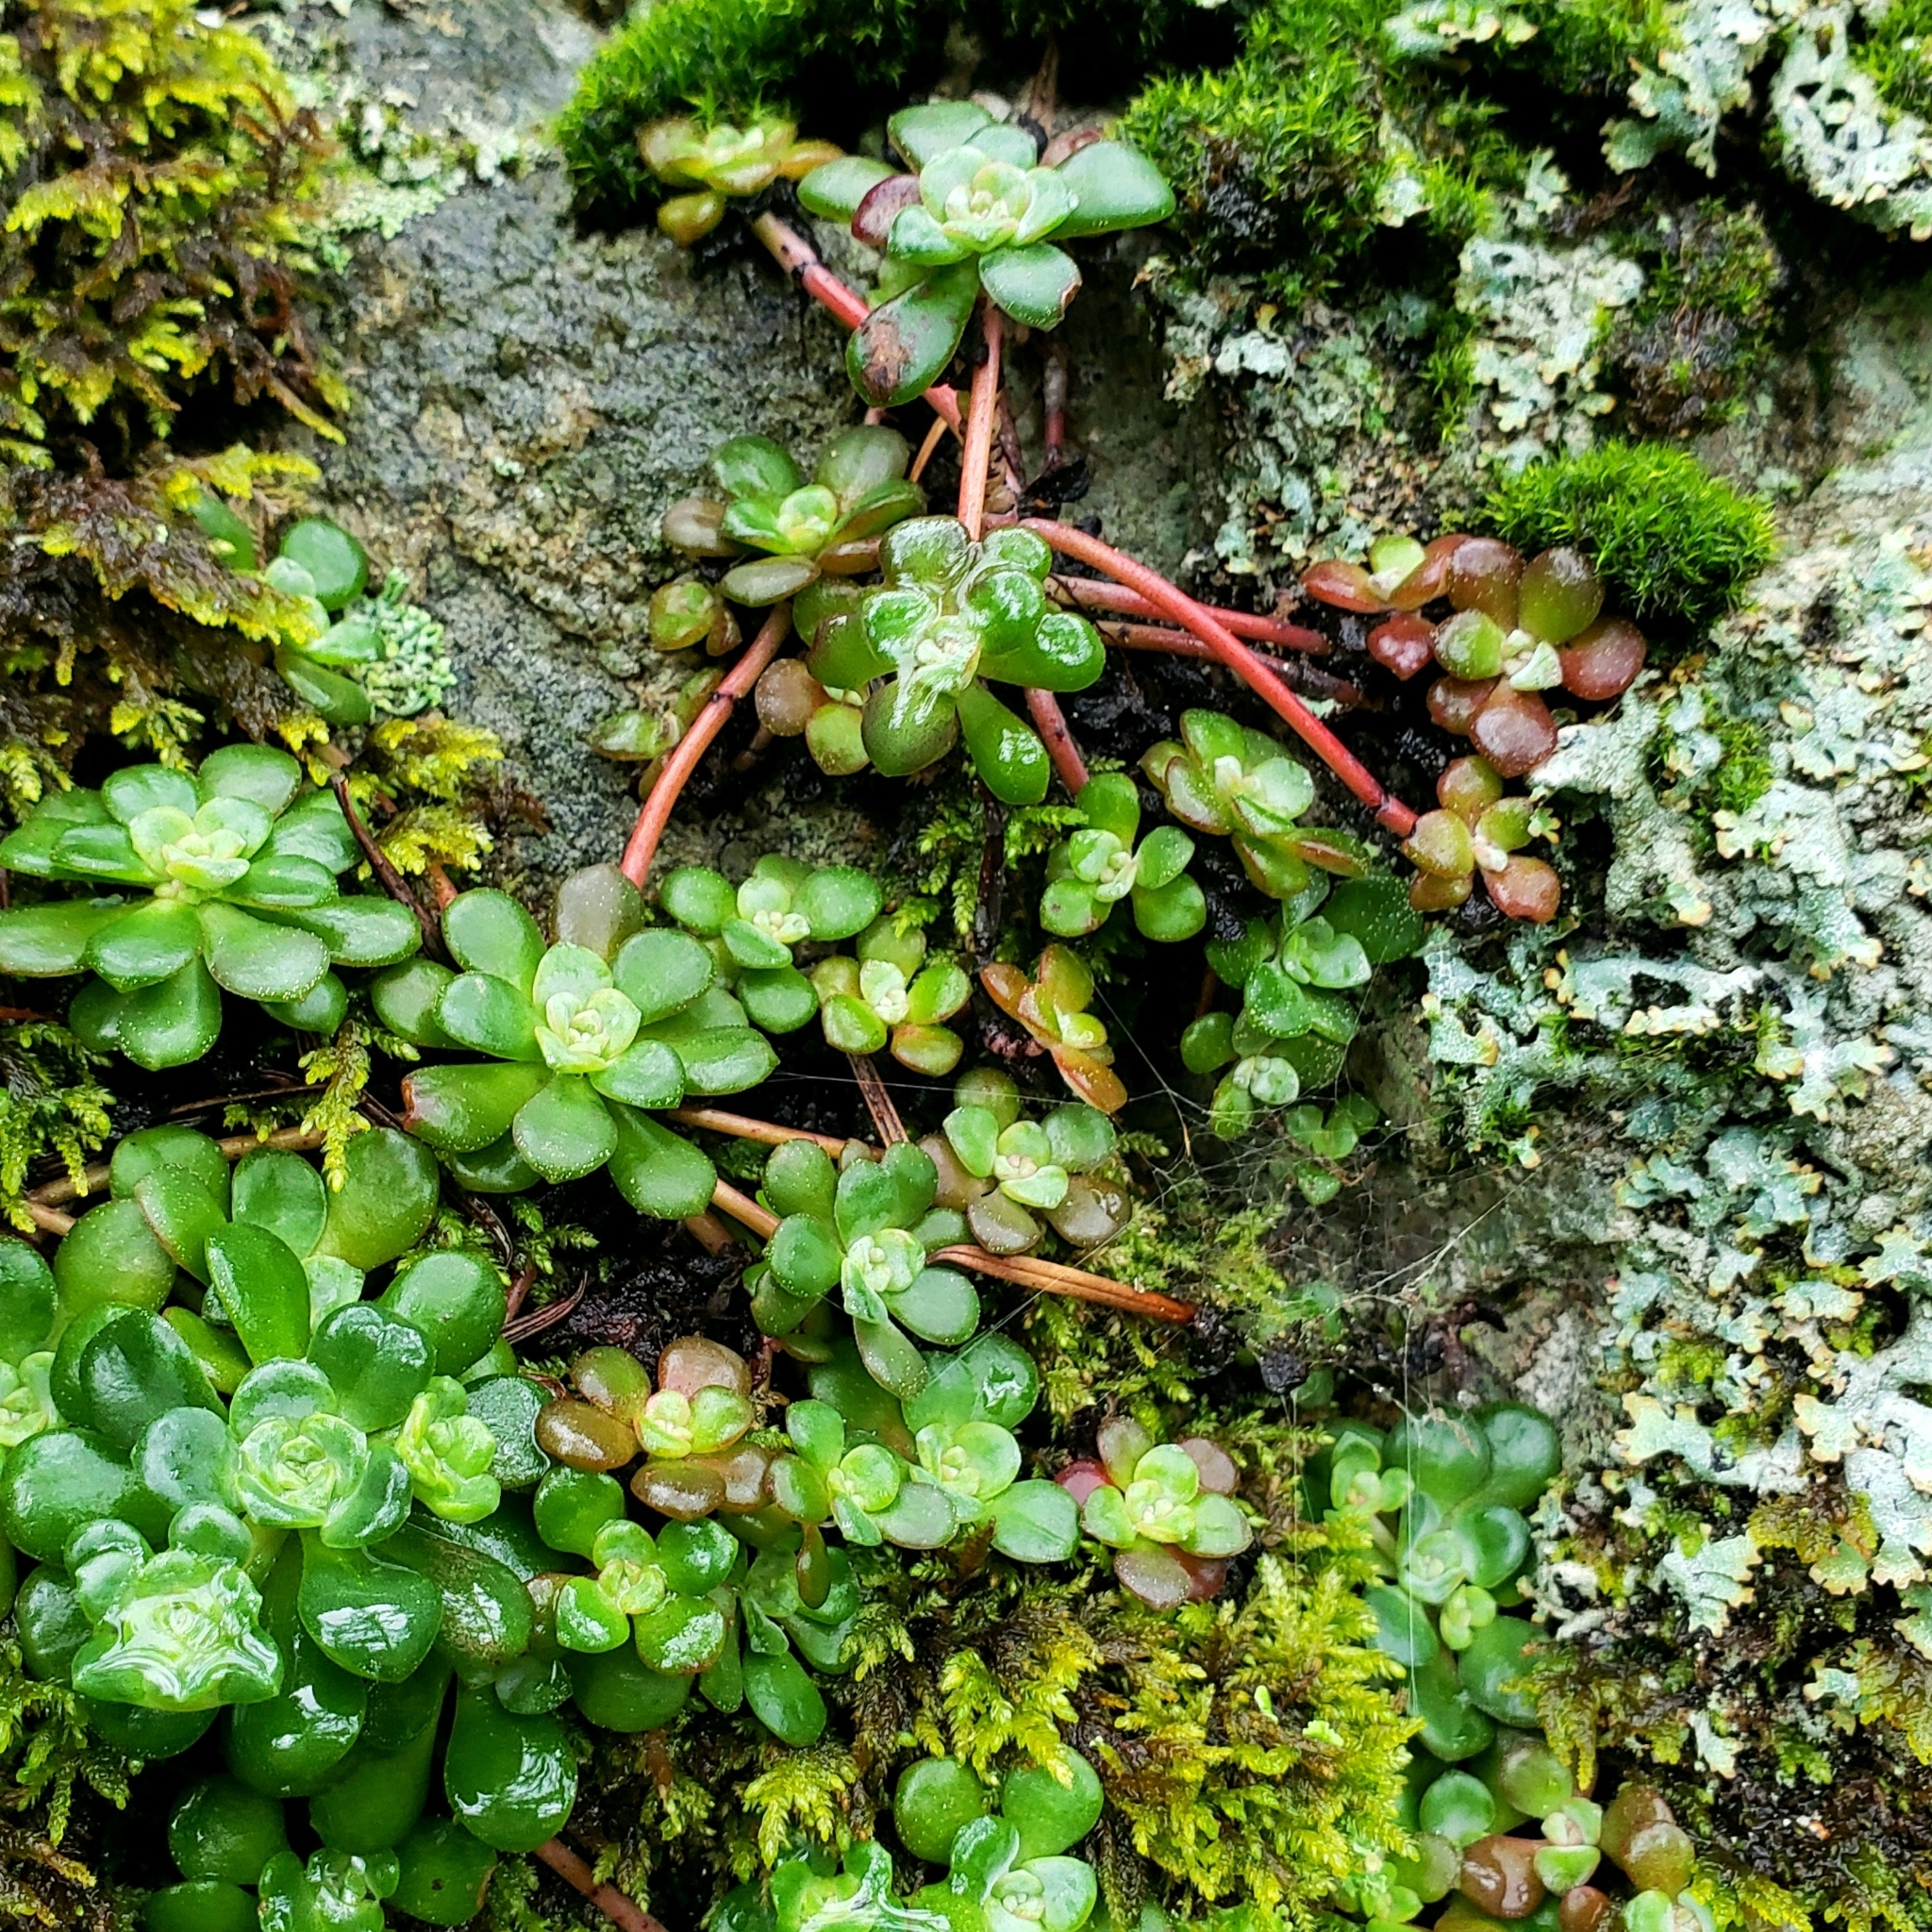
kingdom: Plantae
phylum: Tracheophyta
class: Magnoliopsida
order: Saxifragales
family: Crassulaceae
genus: Sedum
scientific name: Sedum spathulifolium
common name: Colorado stonecrop
